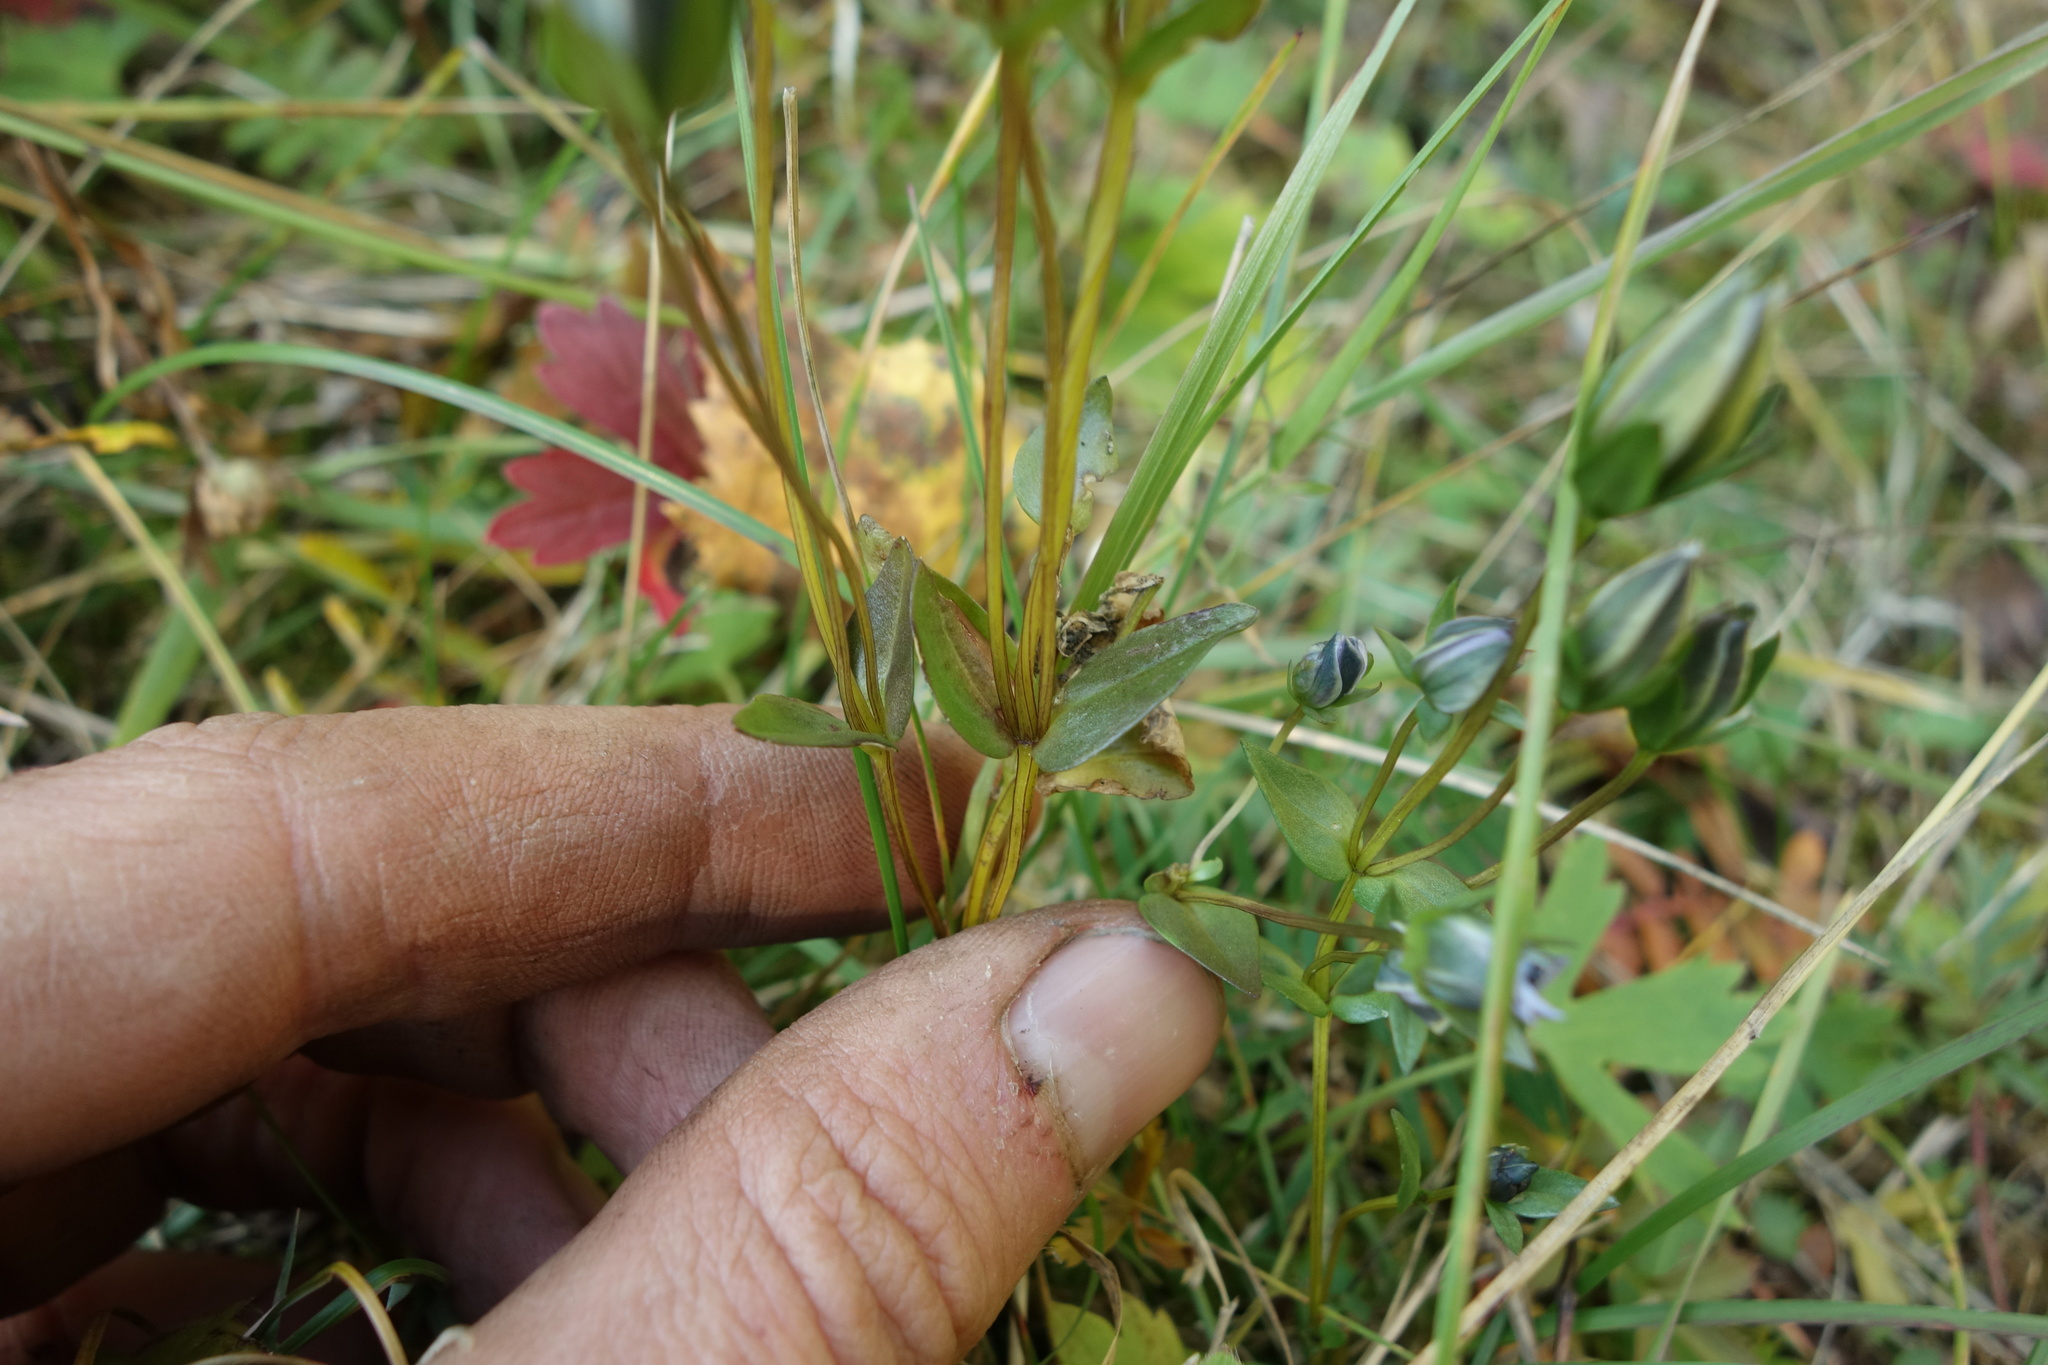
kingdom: Plantae
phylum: Tracheophyta
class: Magnoliopsida
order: Gentianales
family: Gentianaceae
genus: Lomatogonium
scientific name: Lomatogonium carinthiacum
